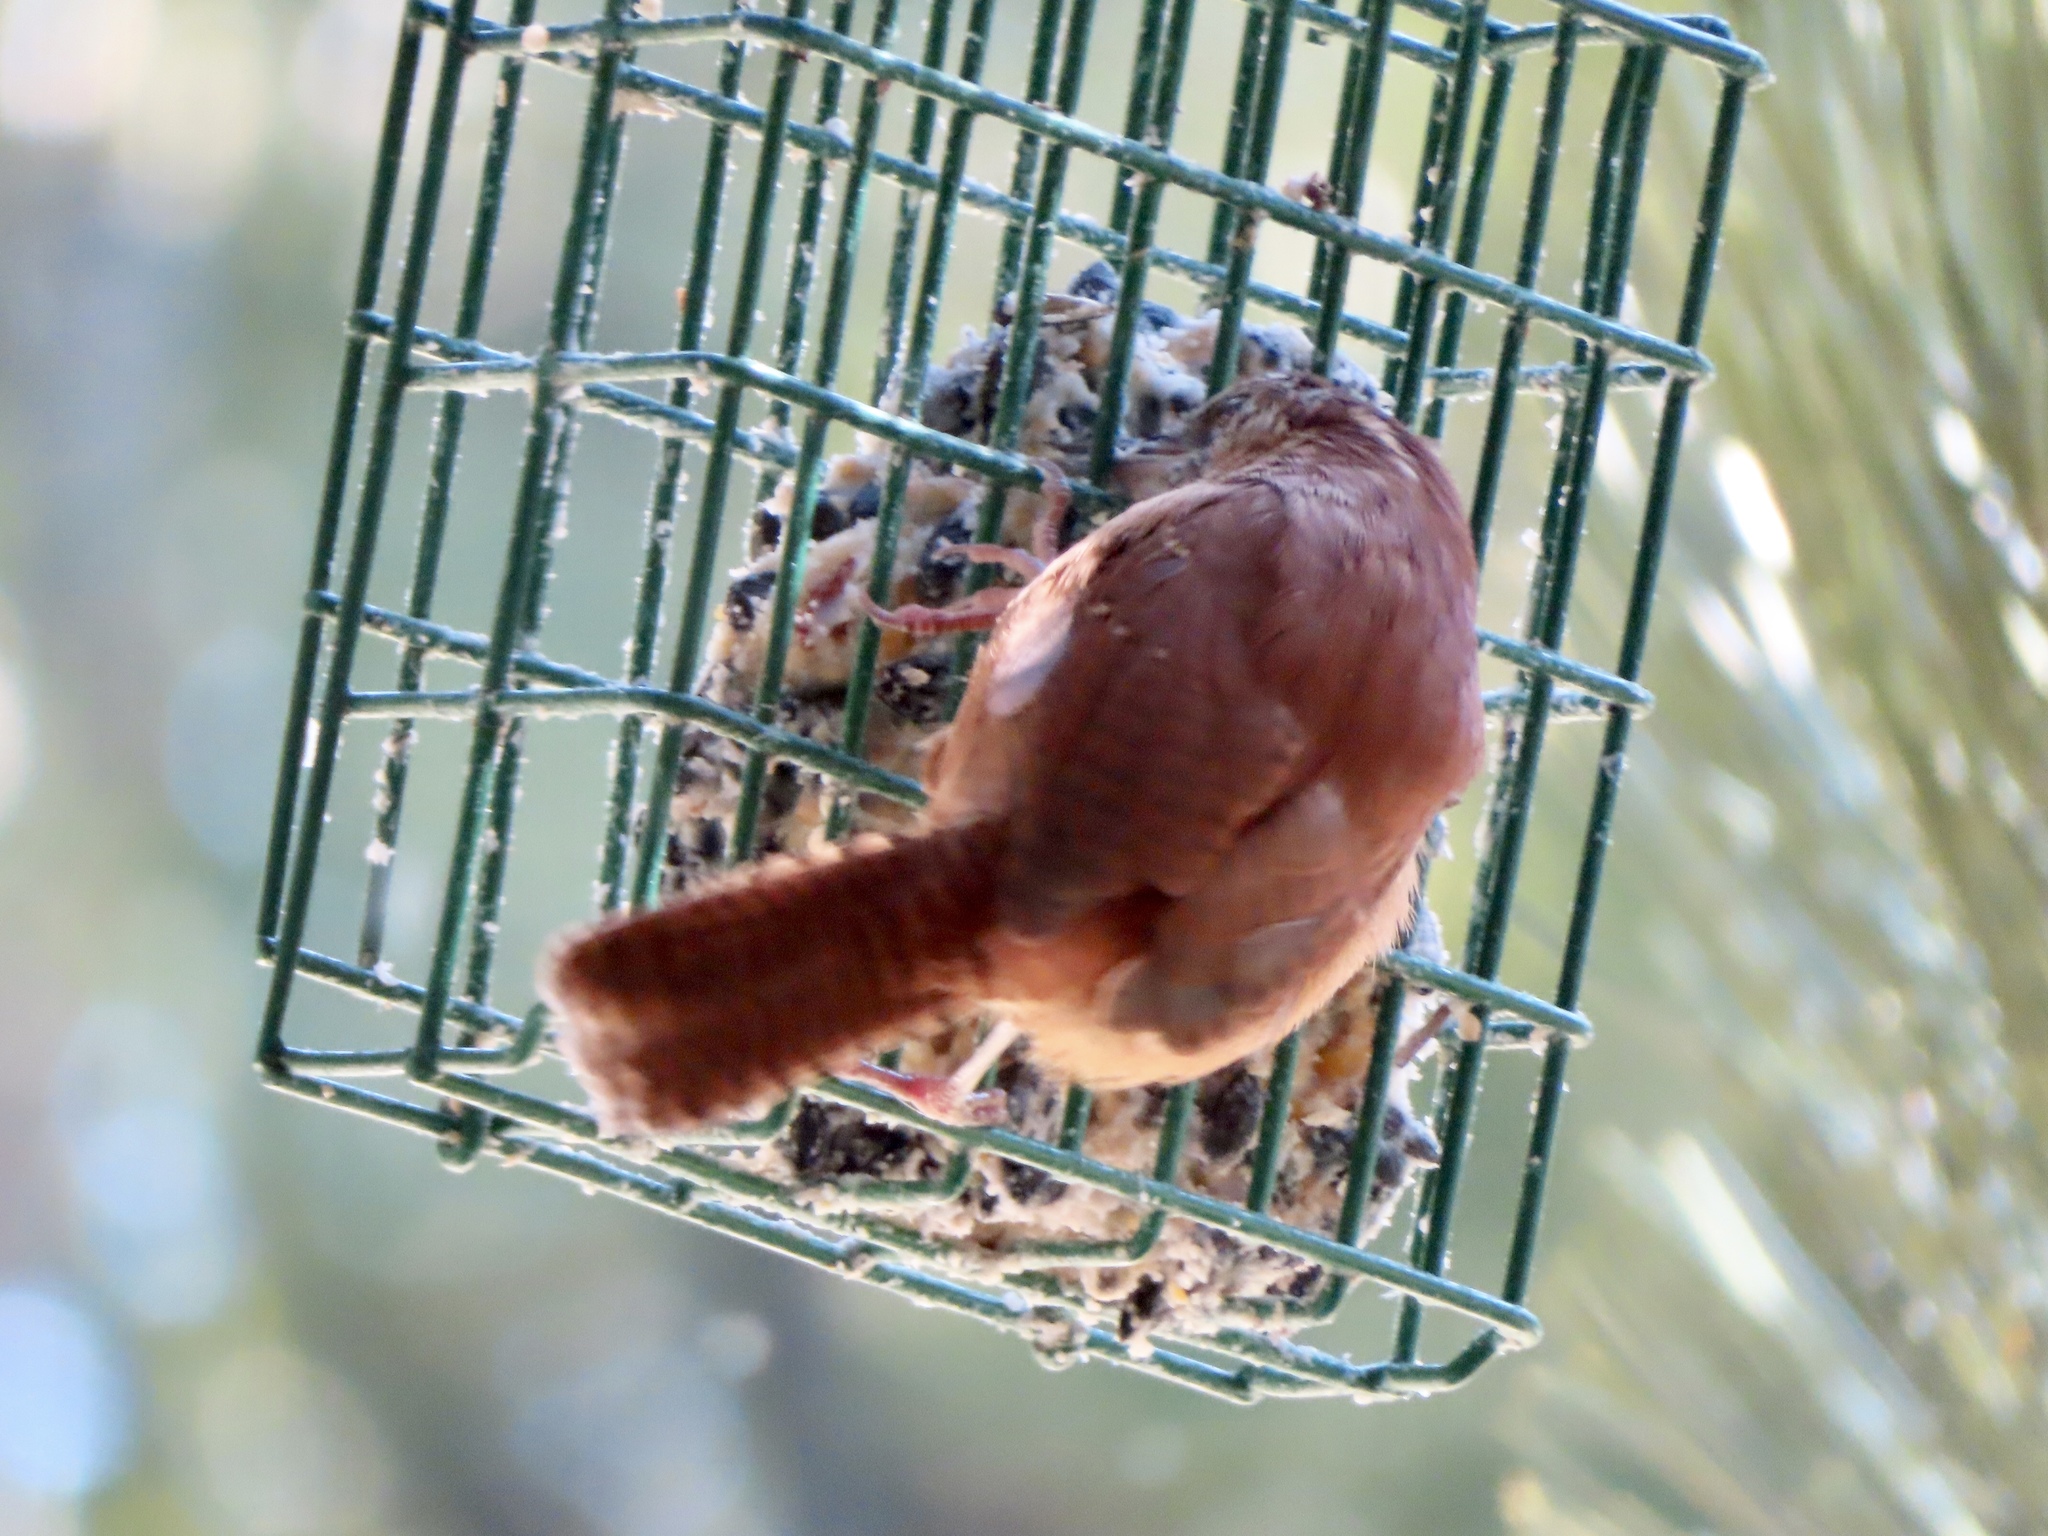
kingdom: Animalia
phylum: Chordata
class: Aves
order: Passeriformes
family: Troglodytidae
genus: Thryothorus
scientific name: Thryothorus ludovicianus
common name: Carolina wren
